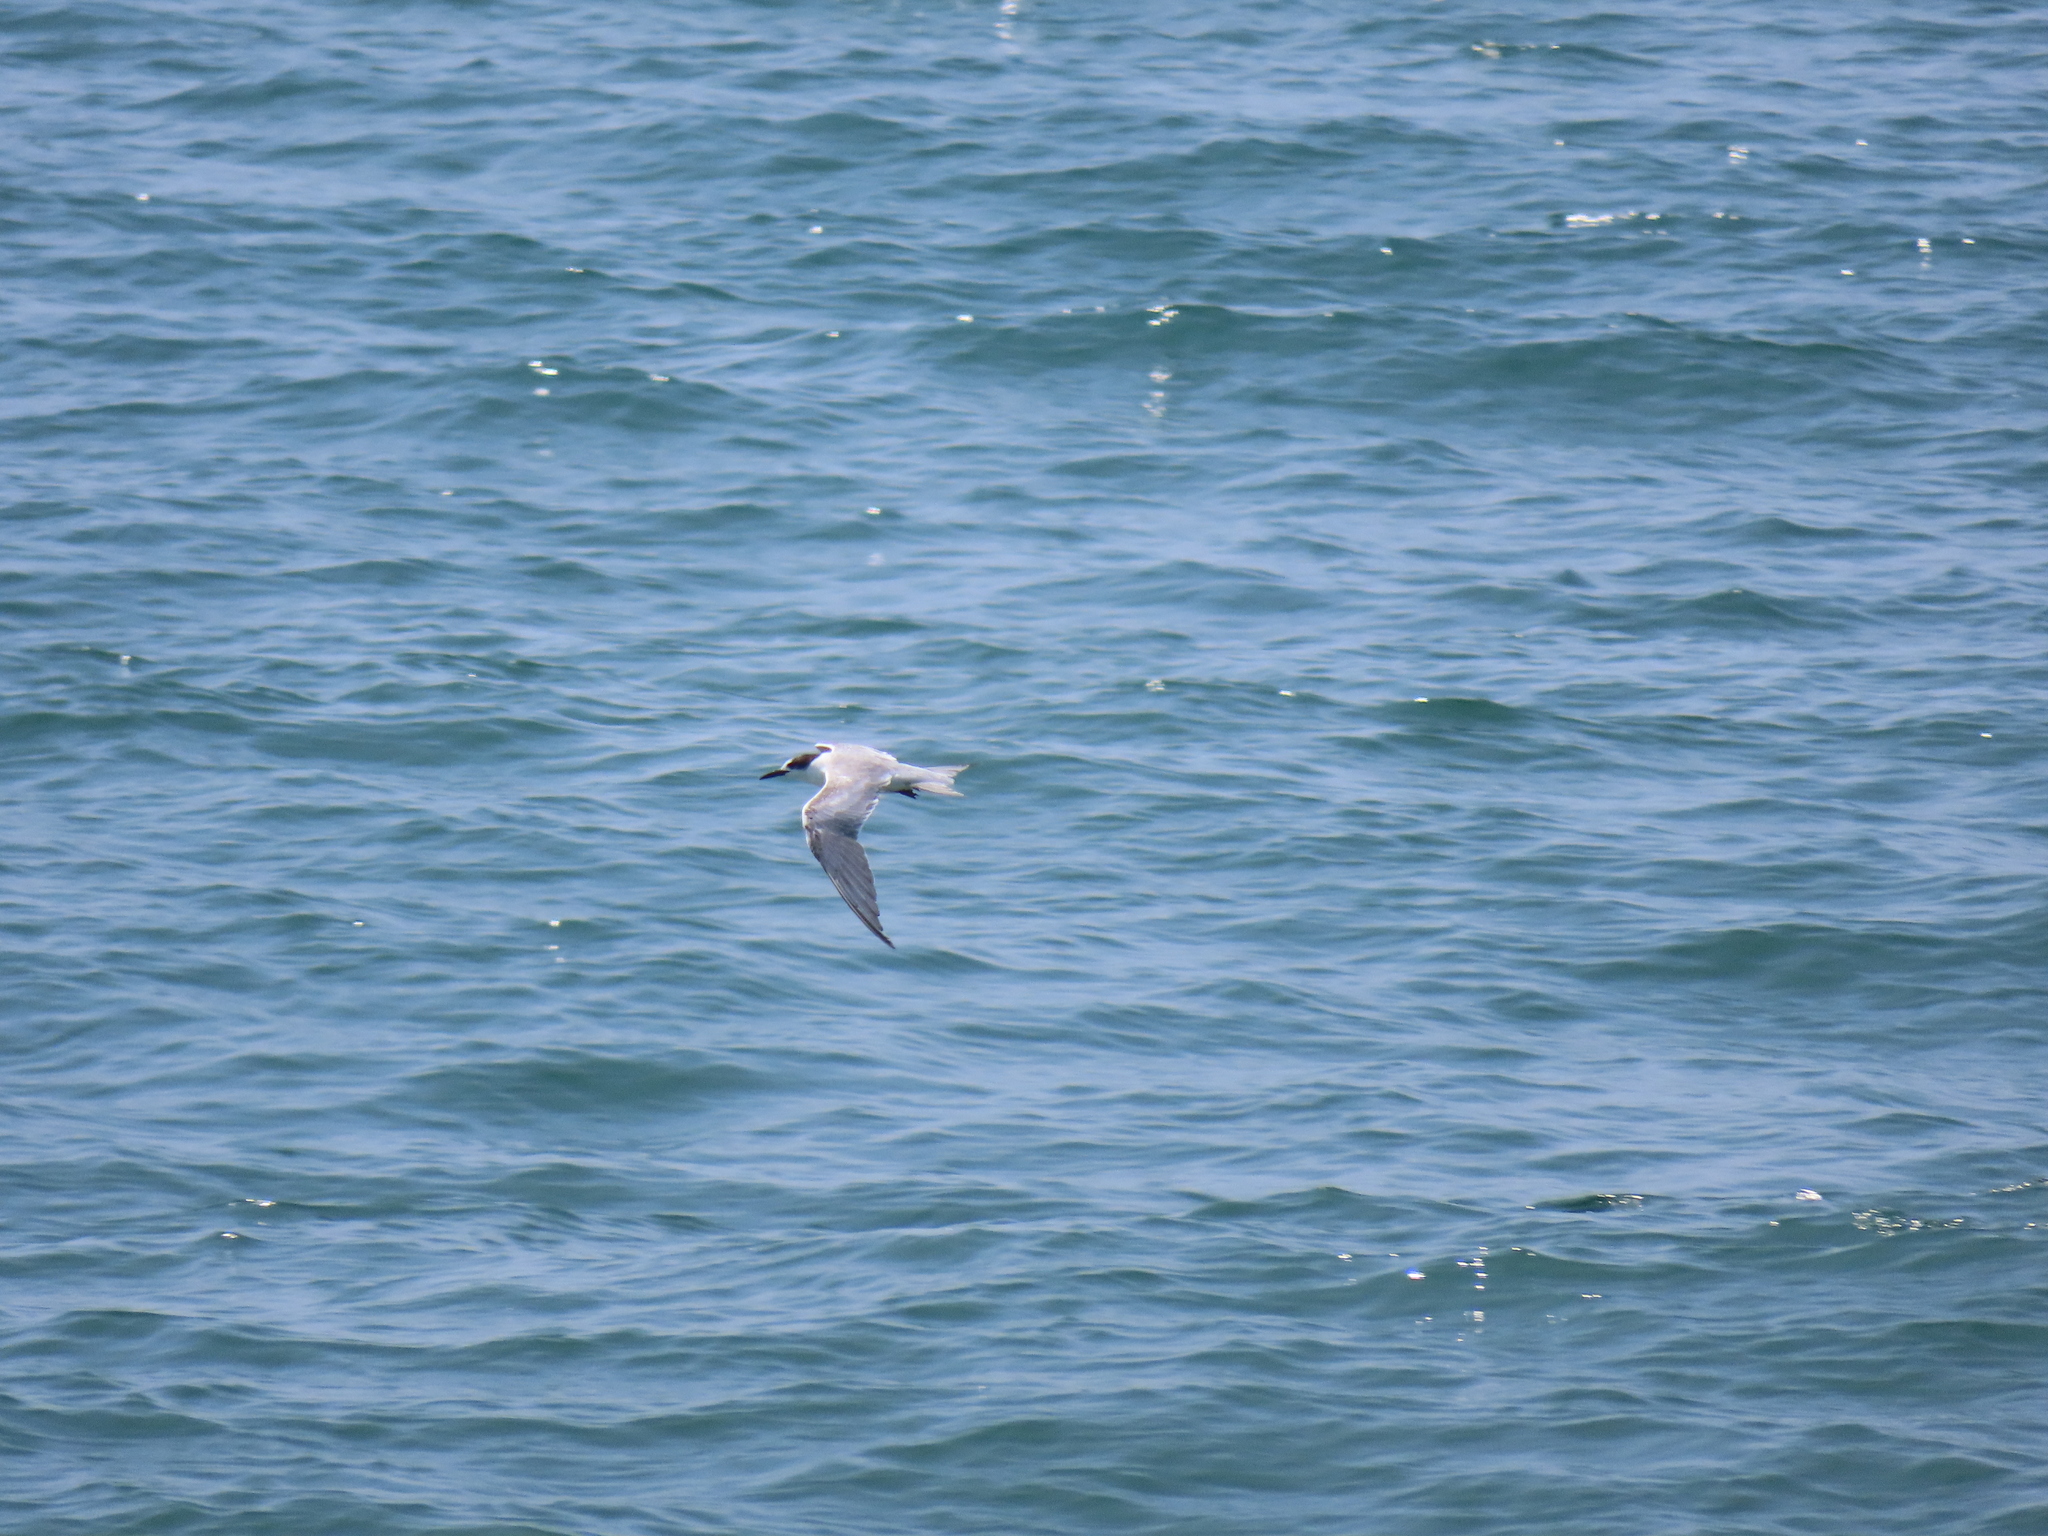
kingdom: Animalia
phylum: Chordata
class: Aves
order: Charadriiformes
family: Laridae
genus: Sterna
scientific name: Sterna hirundo
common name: Common tern
